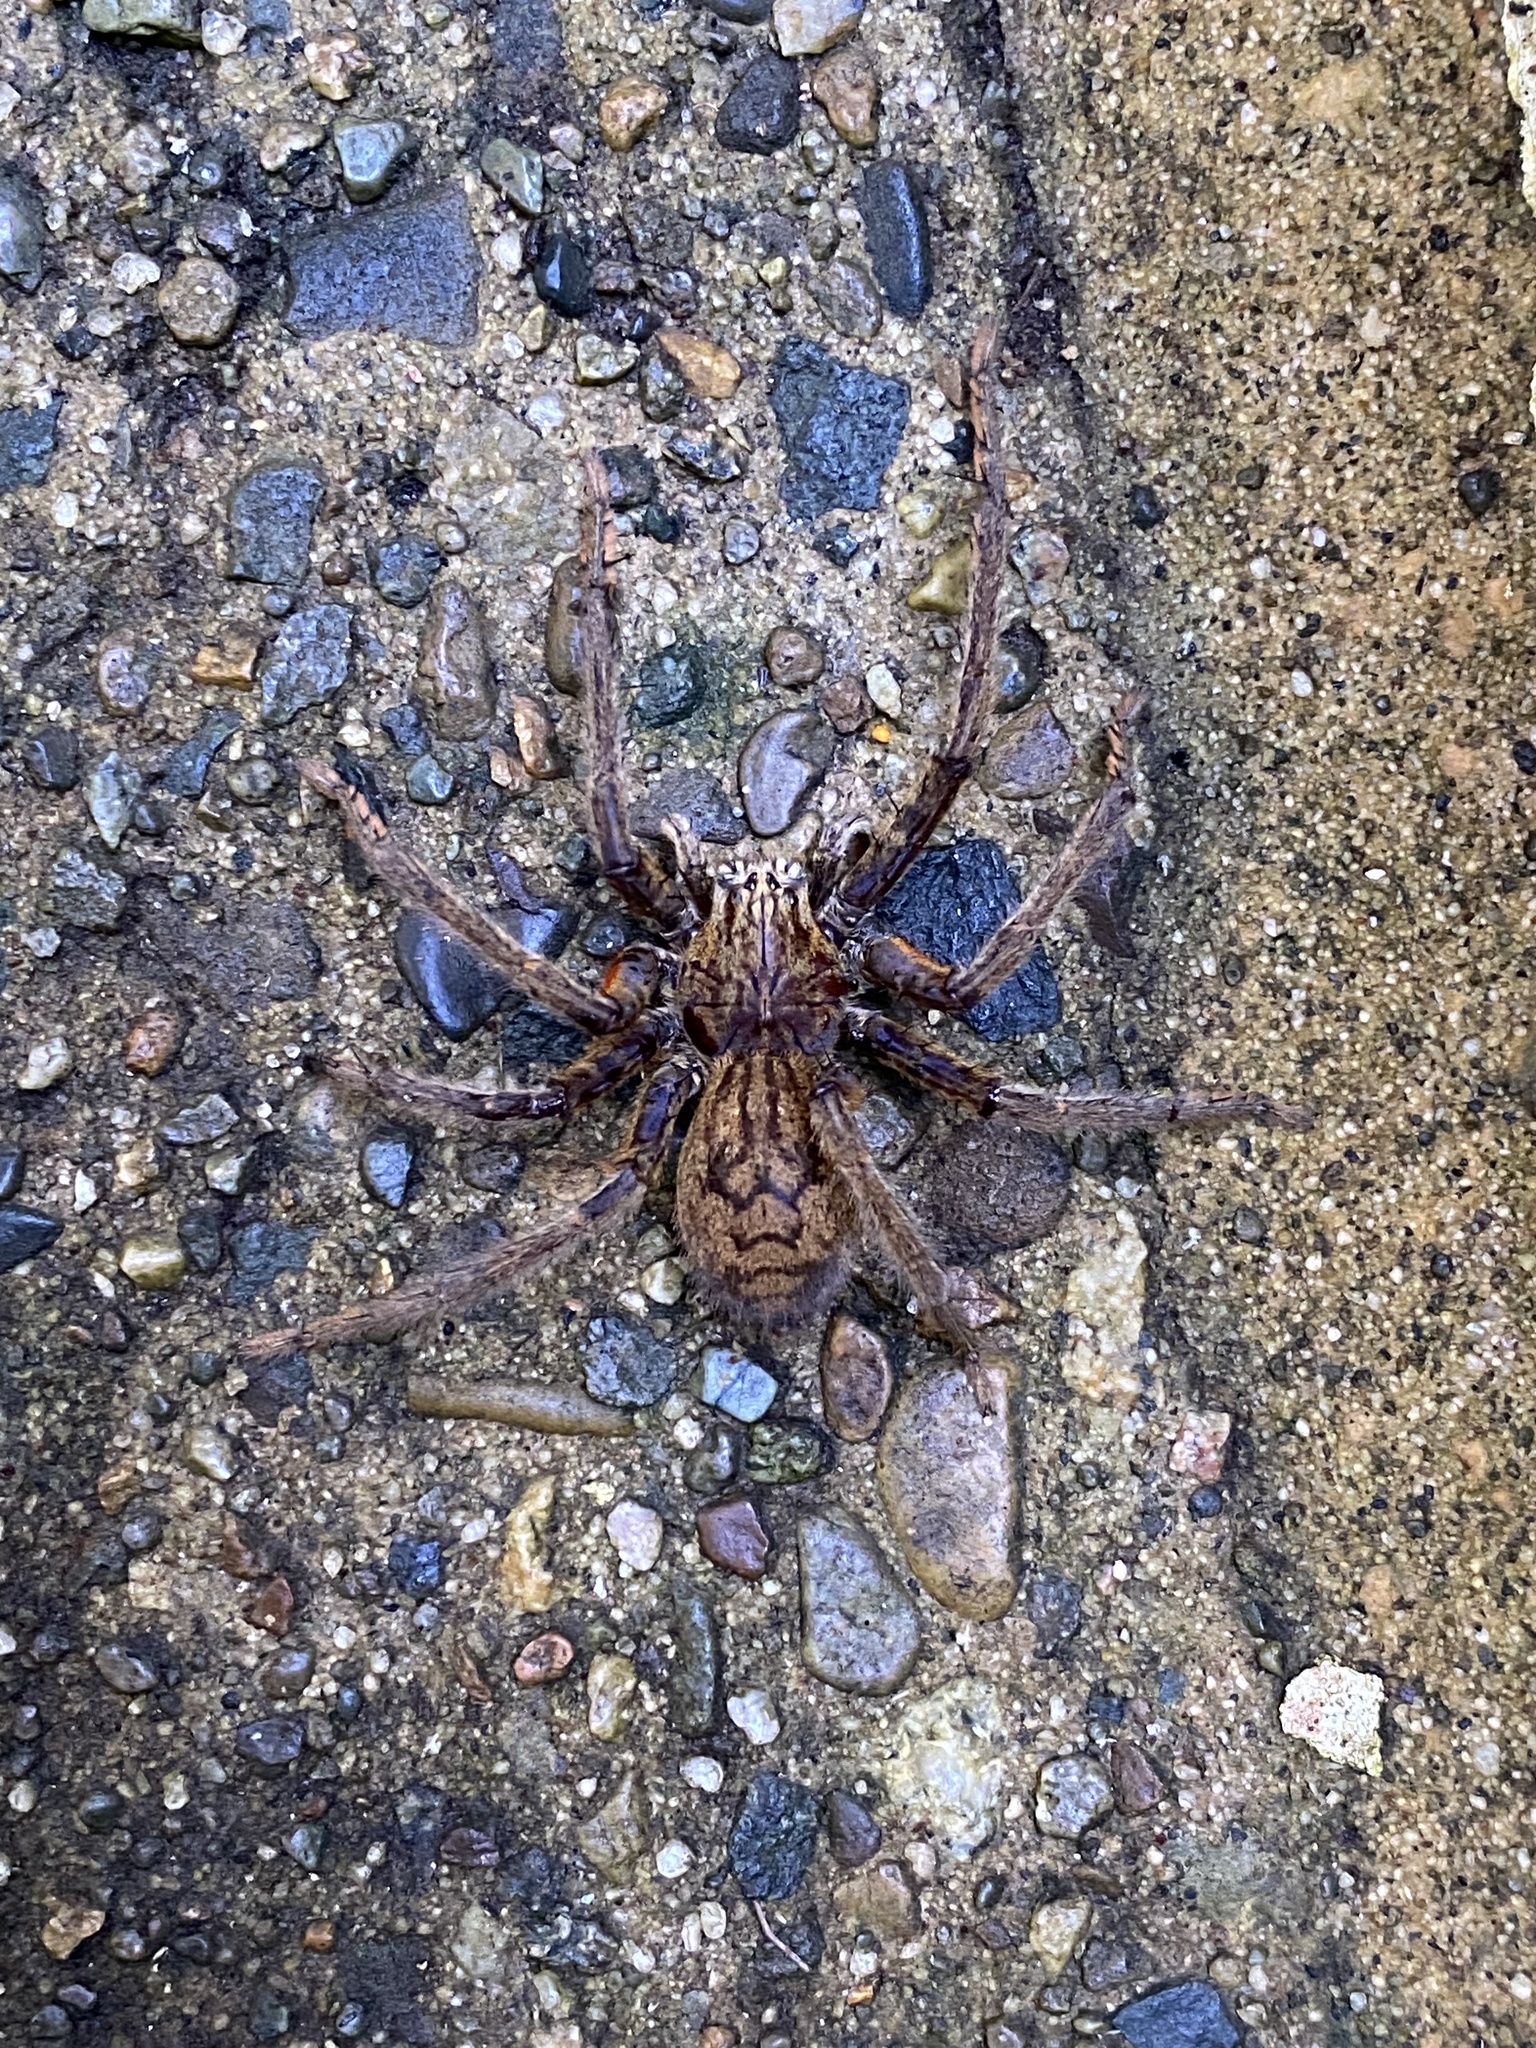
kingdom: Animalia
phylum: Arthropoda
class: Arachnida
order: Araneae
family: Trechaleidae
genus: Cupiennius
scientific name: Cupiennius coccineus
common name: Wandering spiders
